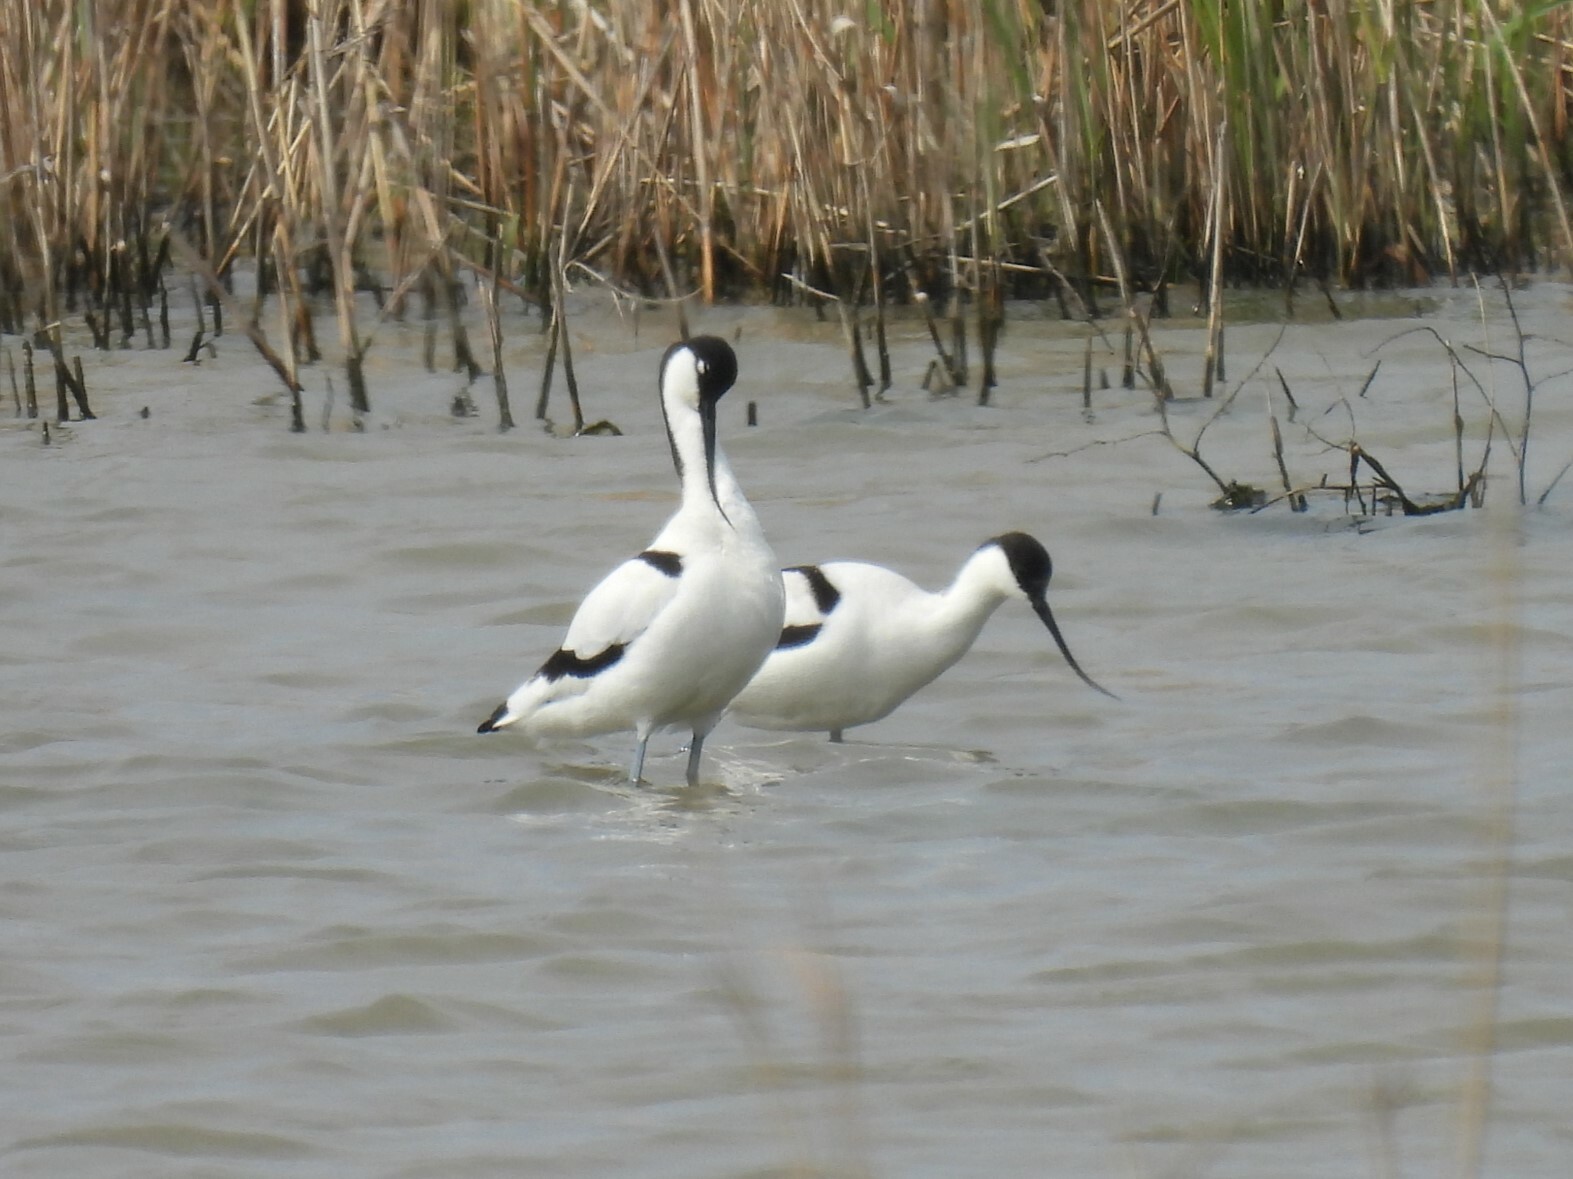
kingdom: Animalia
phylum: Chordata
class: Aves
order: Charadriiformes
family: Recurvirostridae
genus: Recurvirostra
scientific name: Recurvirostra avosetta
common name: Pied avocet
